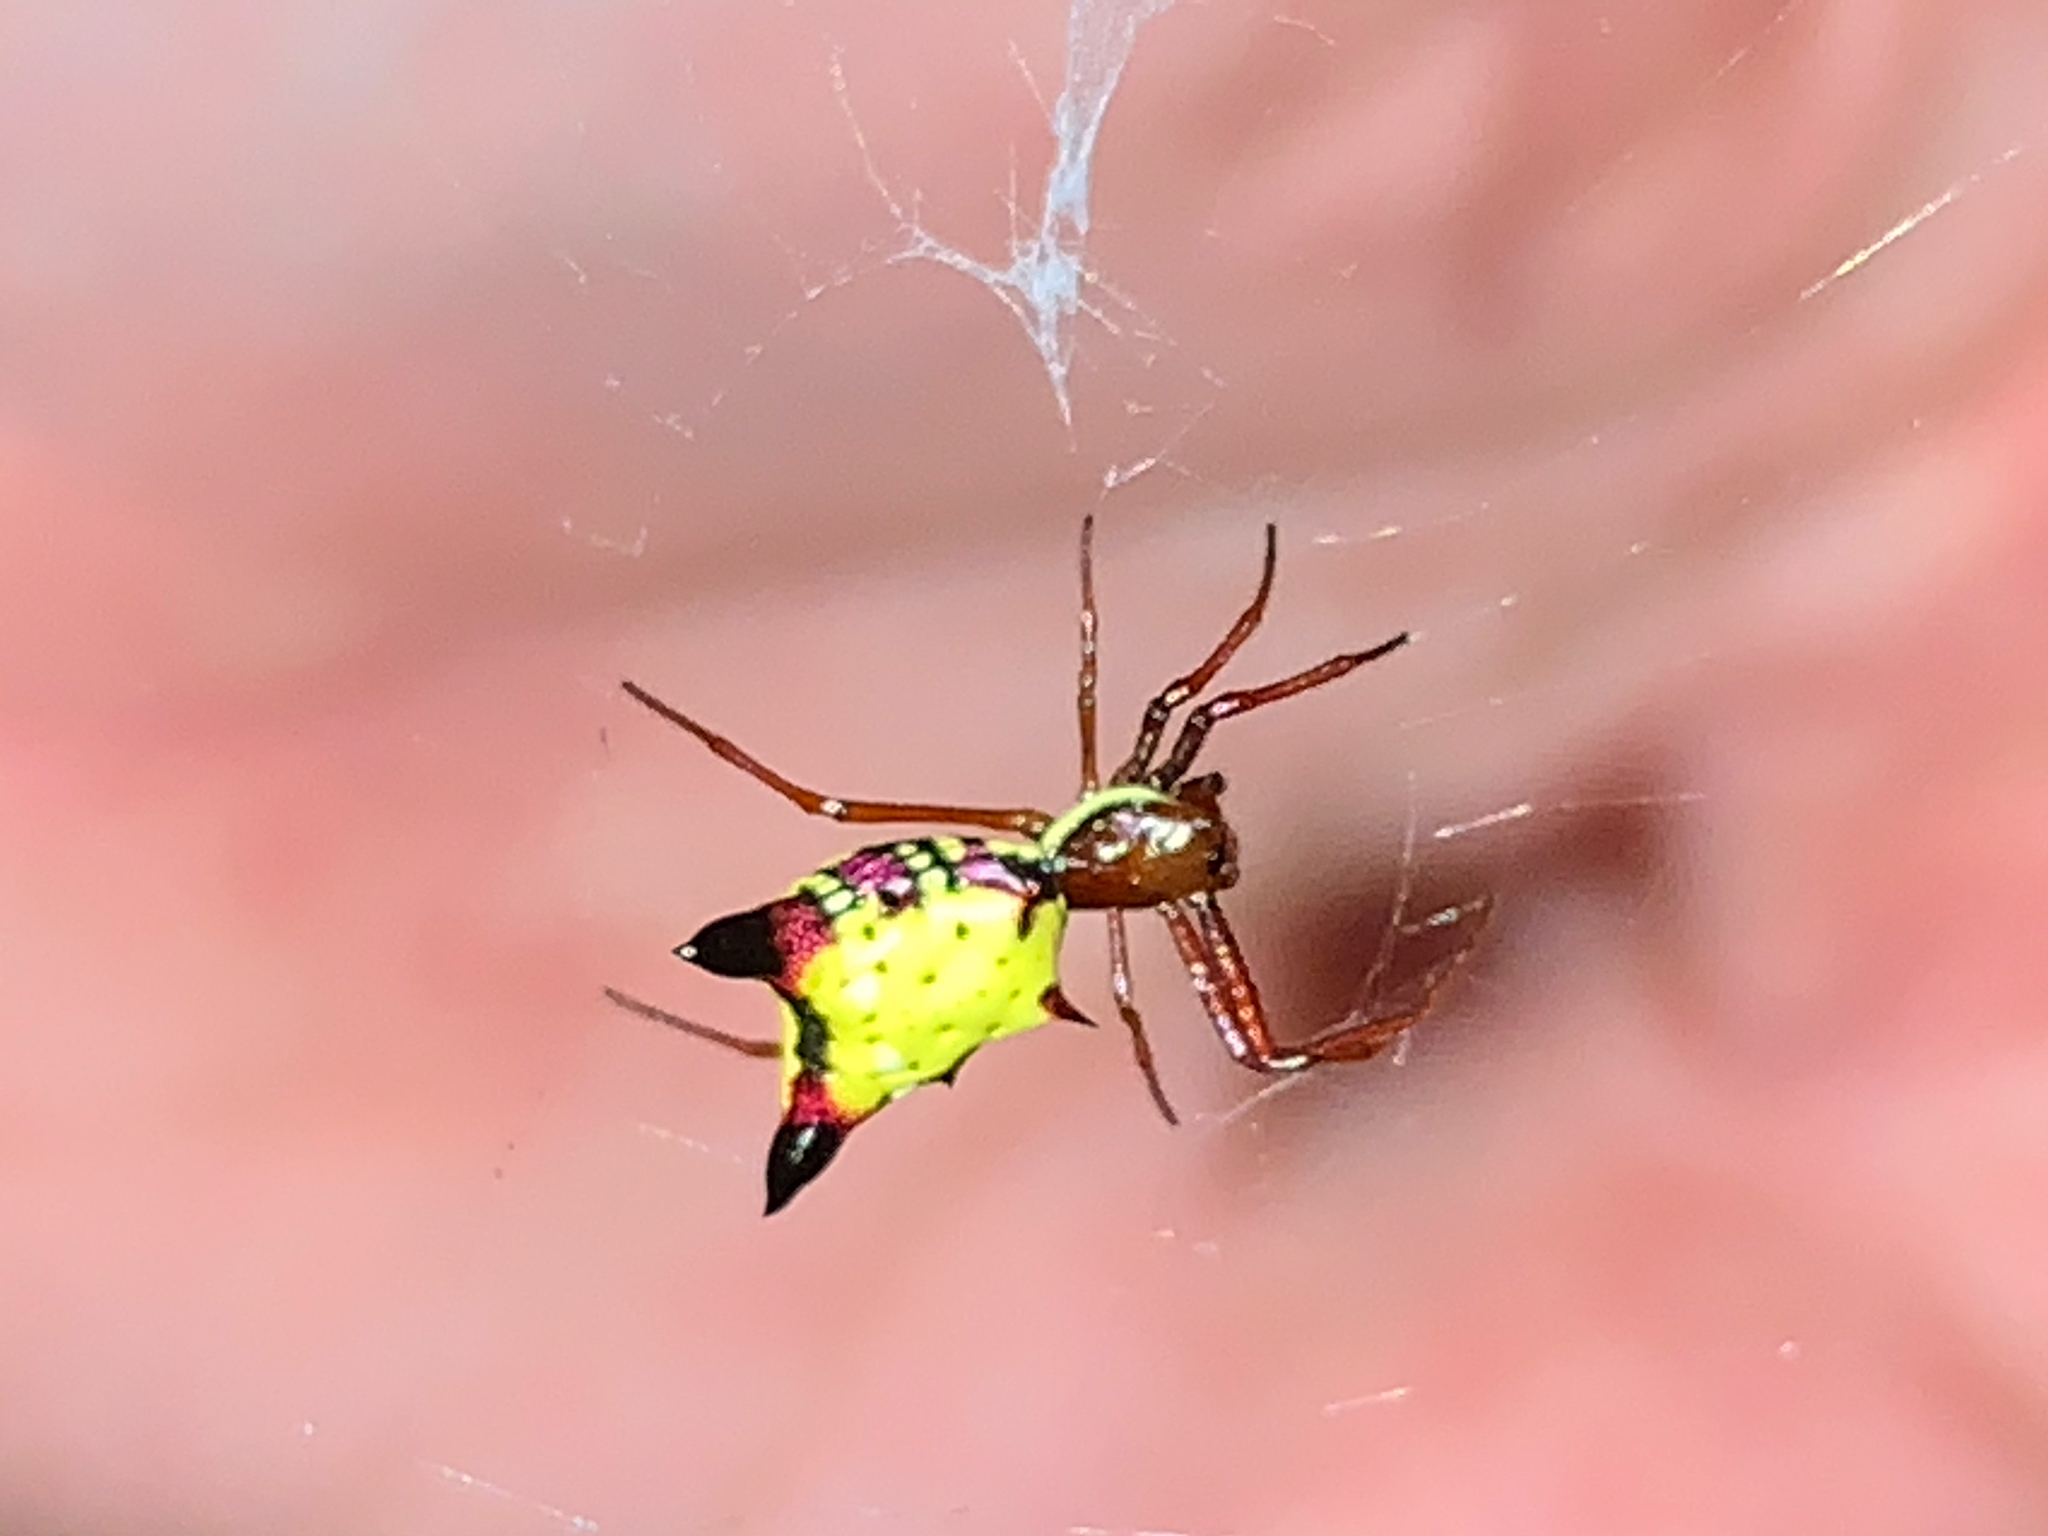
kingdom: Animalia
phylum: Arthropoda
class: Arachnida
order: Araneae
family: Araneidae
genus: Micrathena
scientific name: Micrathena sagittata
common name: Orb weavers
